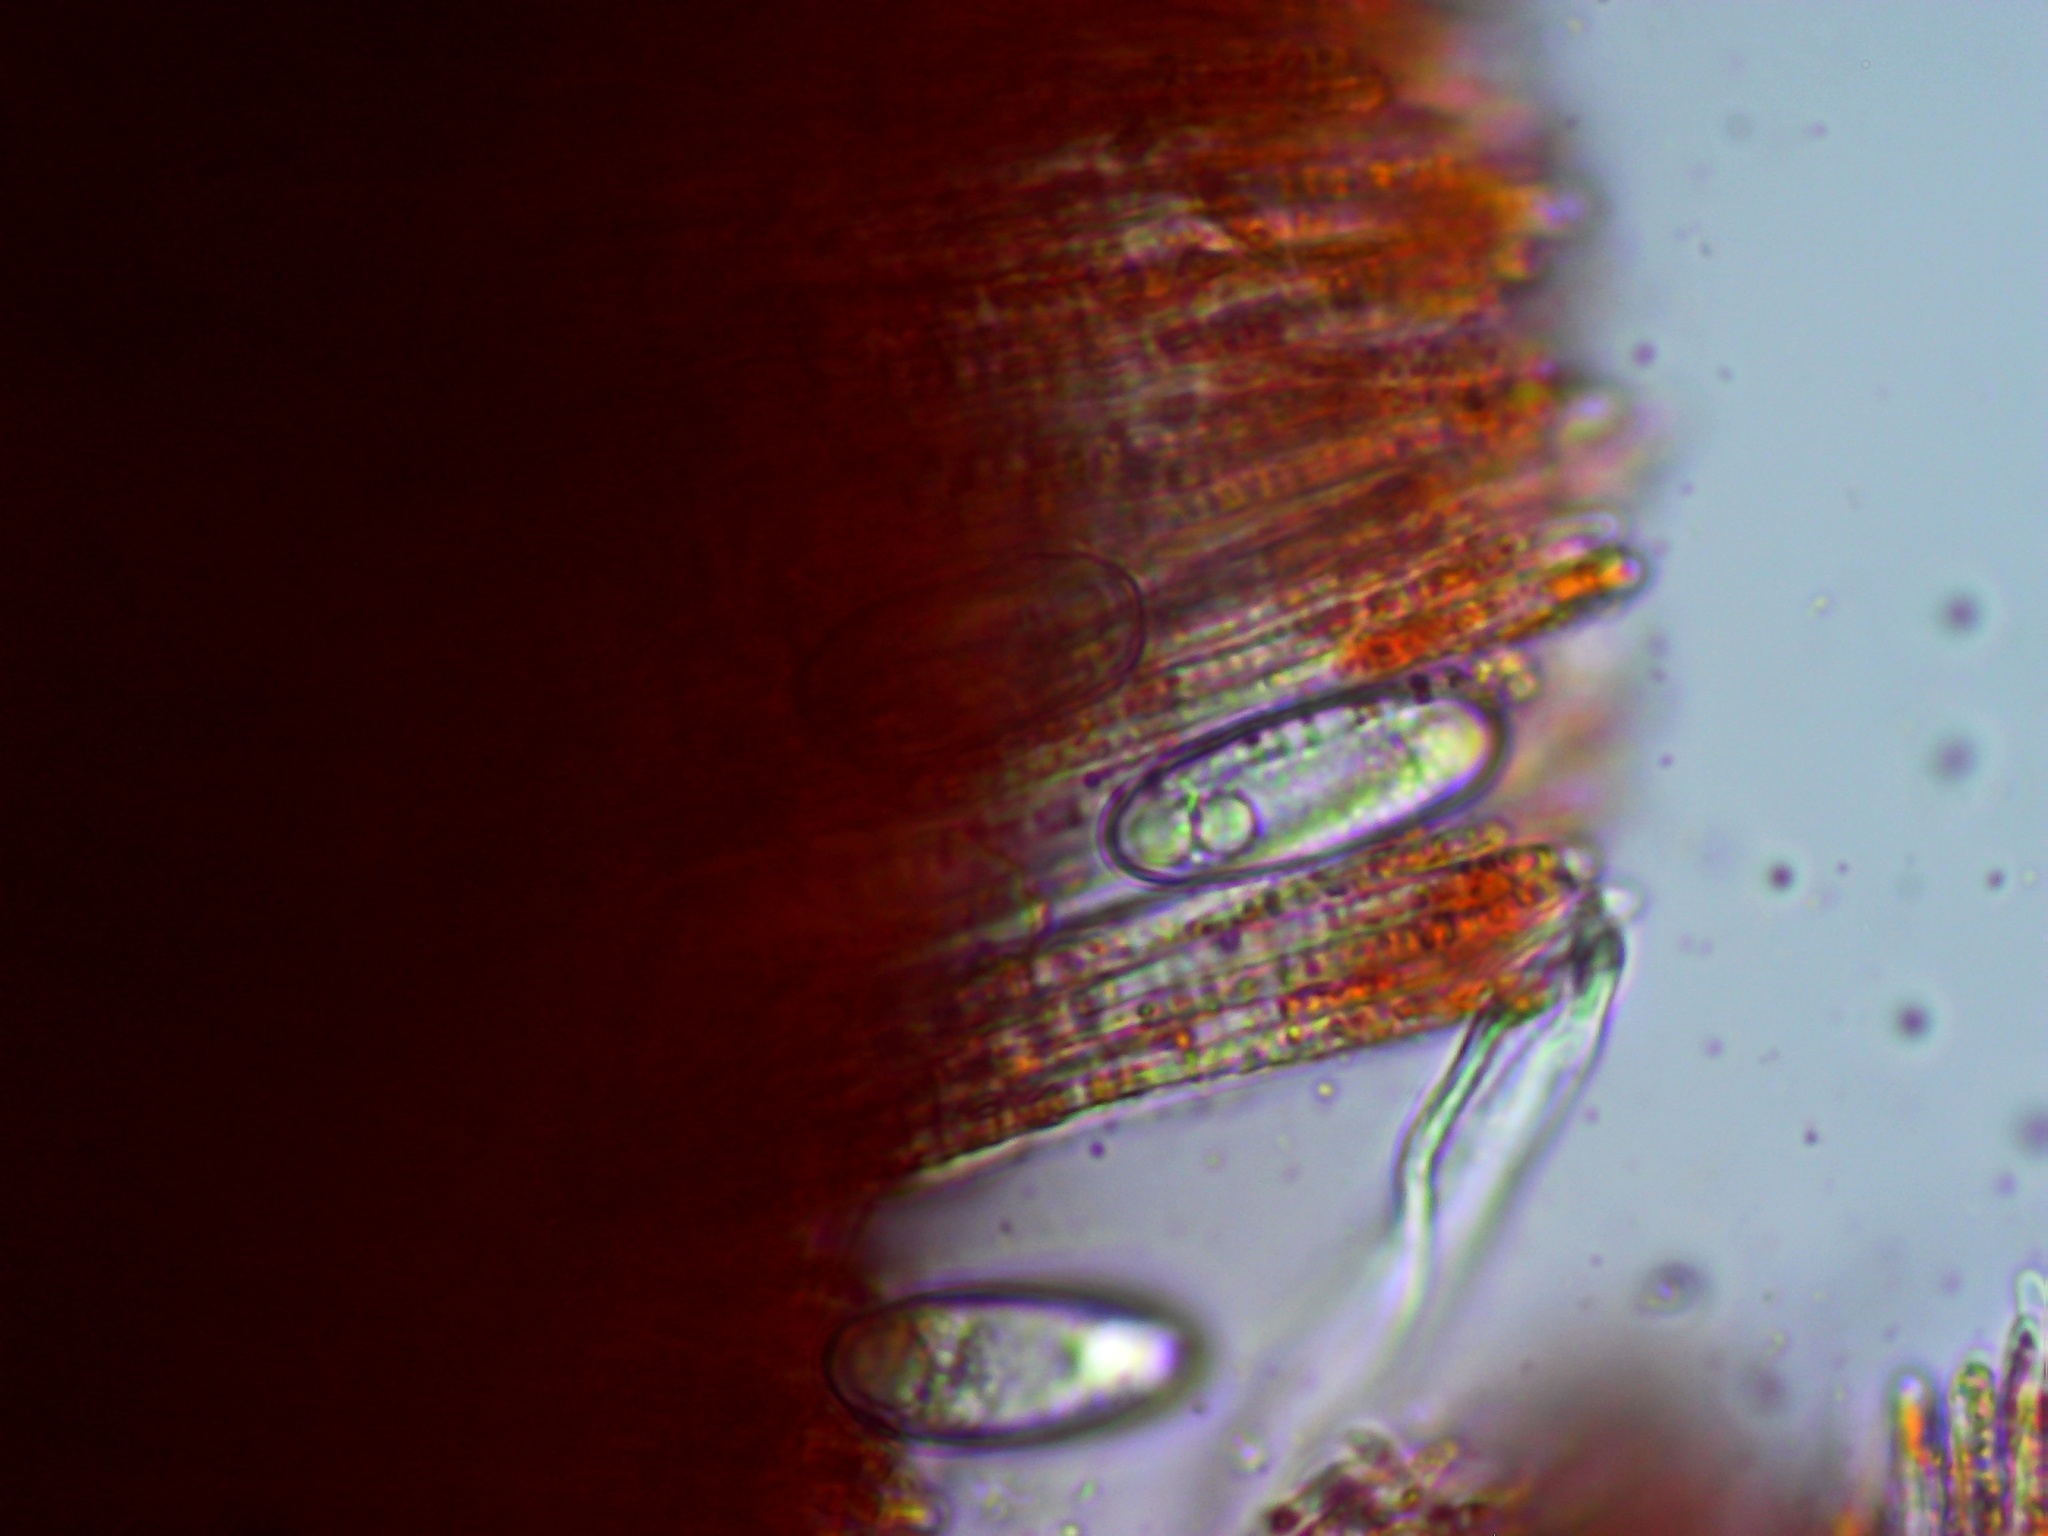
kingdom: Fungi
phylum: Ascomycota
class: Pezizomycetes
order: Pezizales
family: Sarcoscyphaceae
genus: Sarcoscypha
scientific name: Sarcoscypha austriaca
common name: Scarlet elfcup
